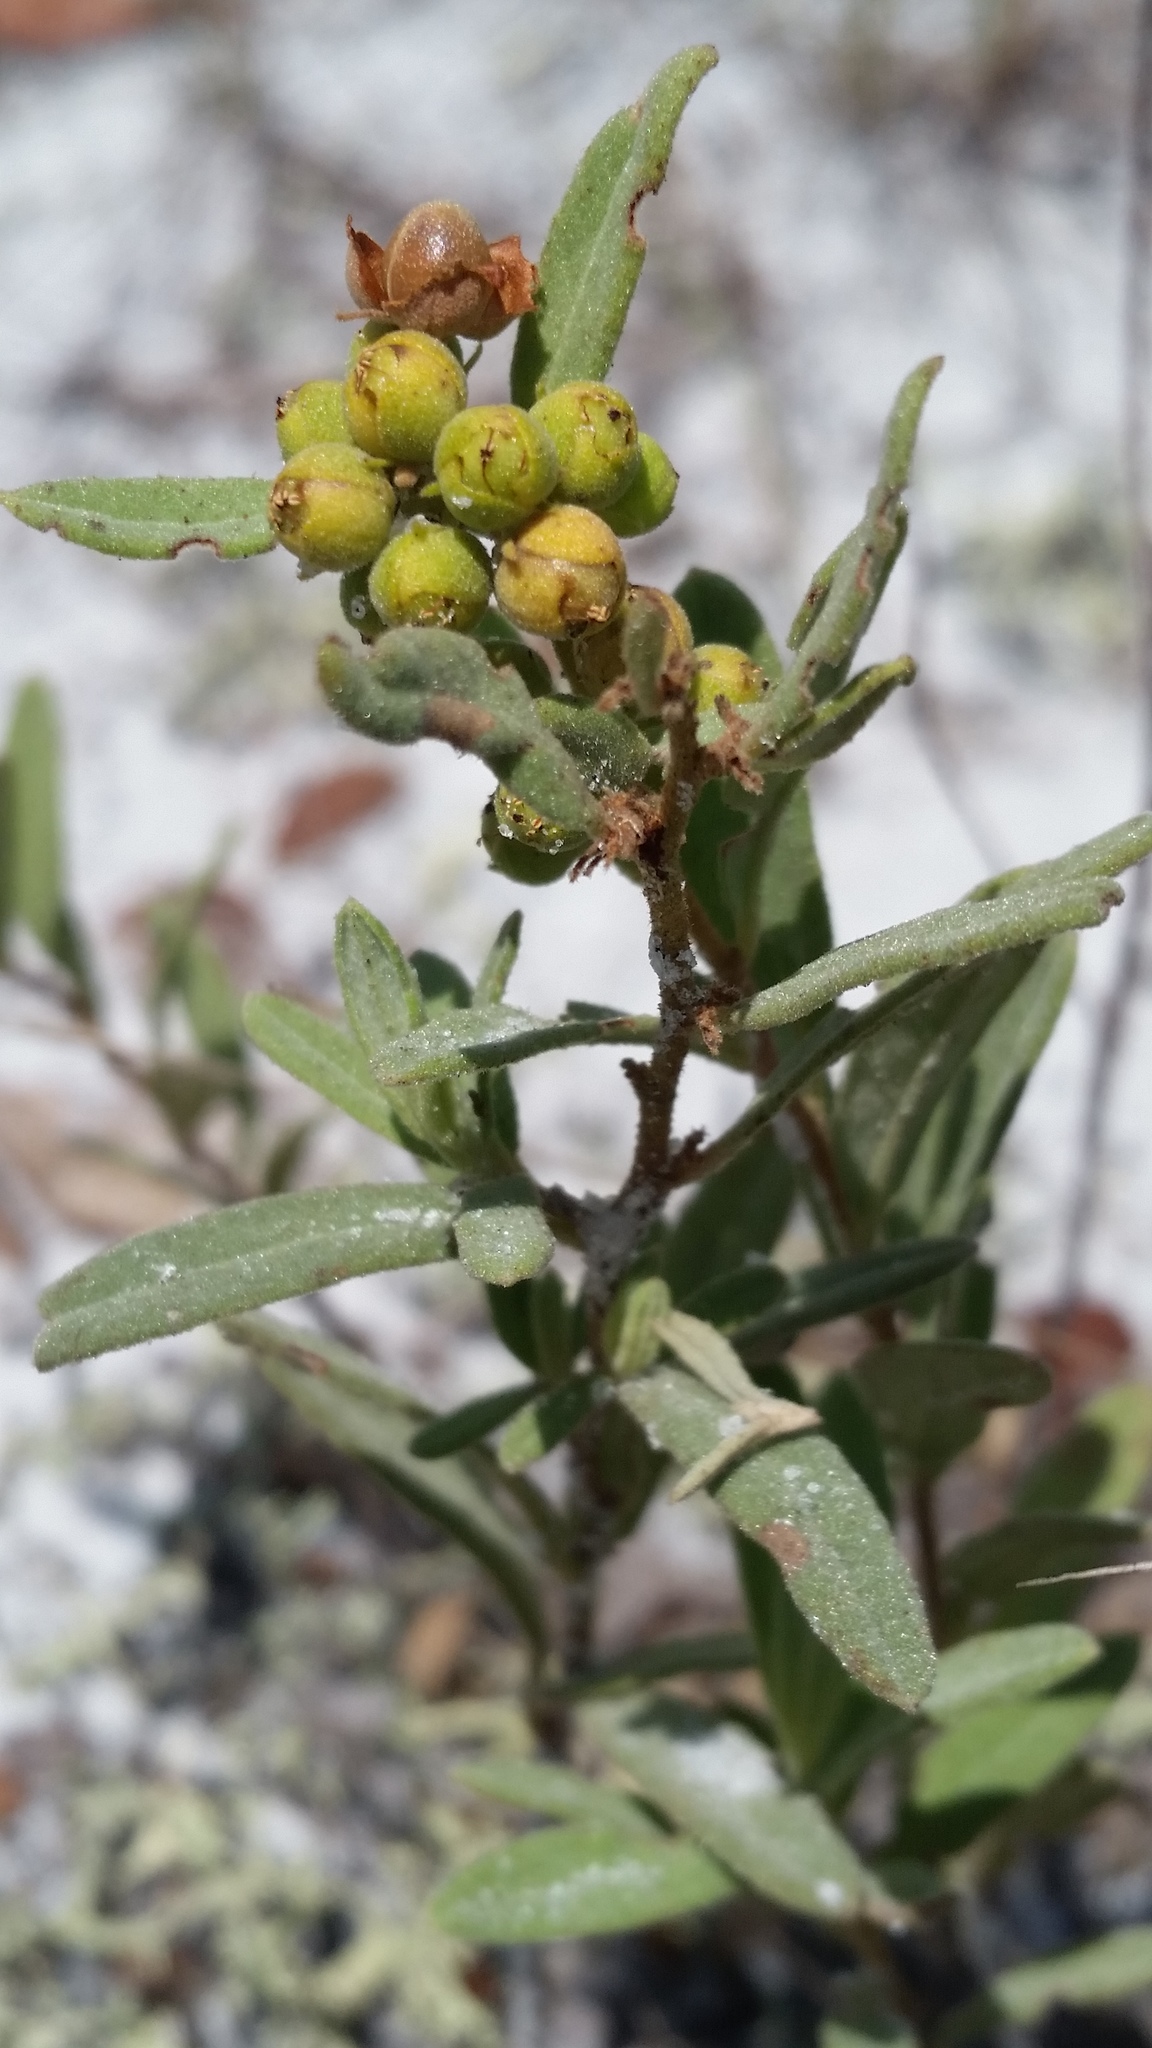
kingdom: Plantae
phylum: Tracheophyta
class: Magnoliopsida
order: Malvales
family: Cistaceae
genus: Crocanthemum
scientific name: Crocanthemum nashii
